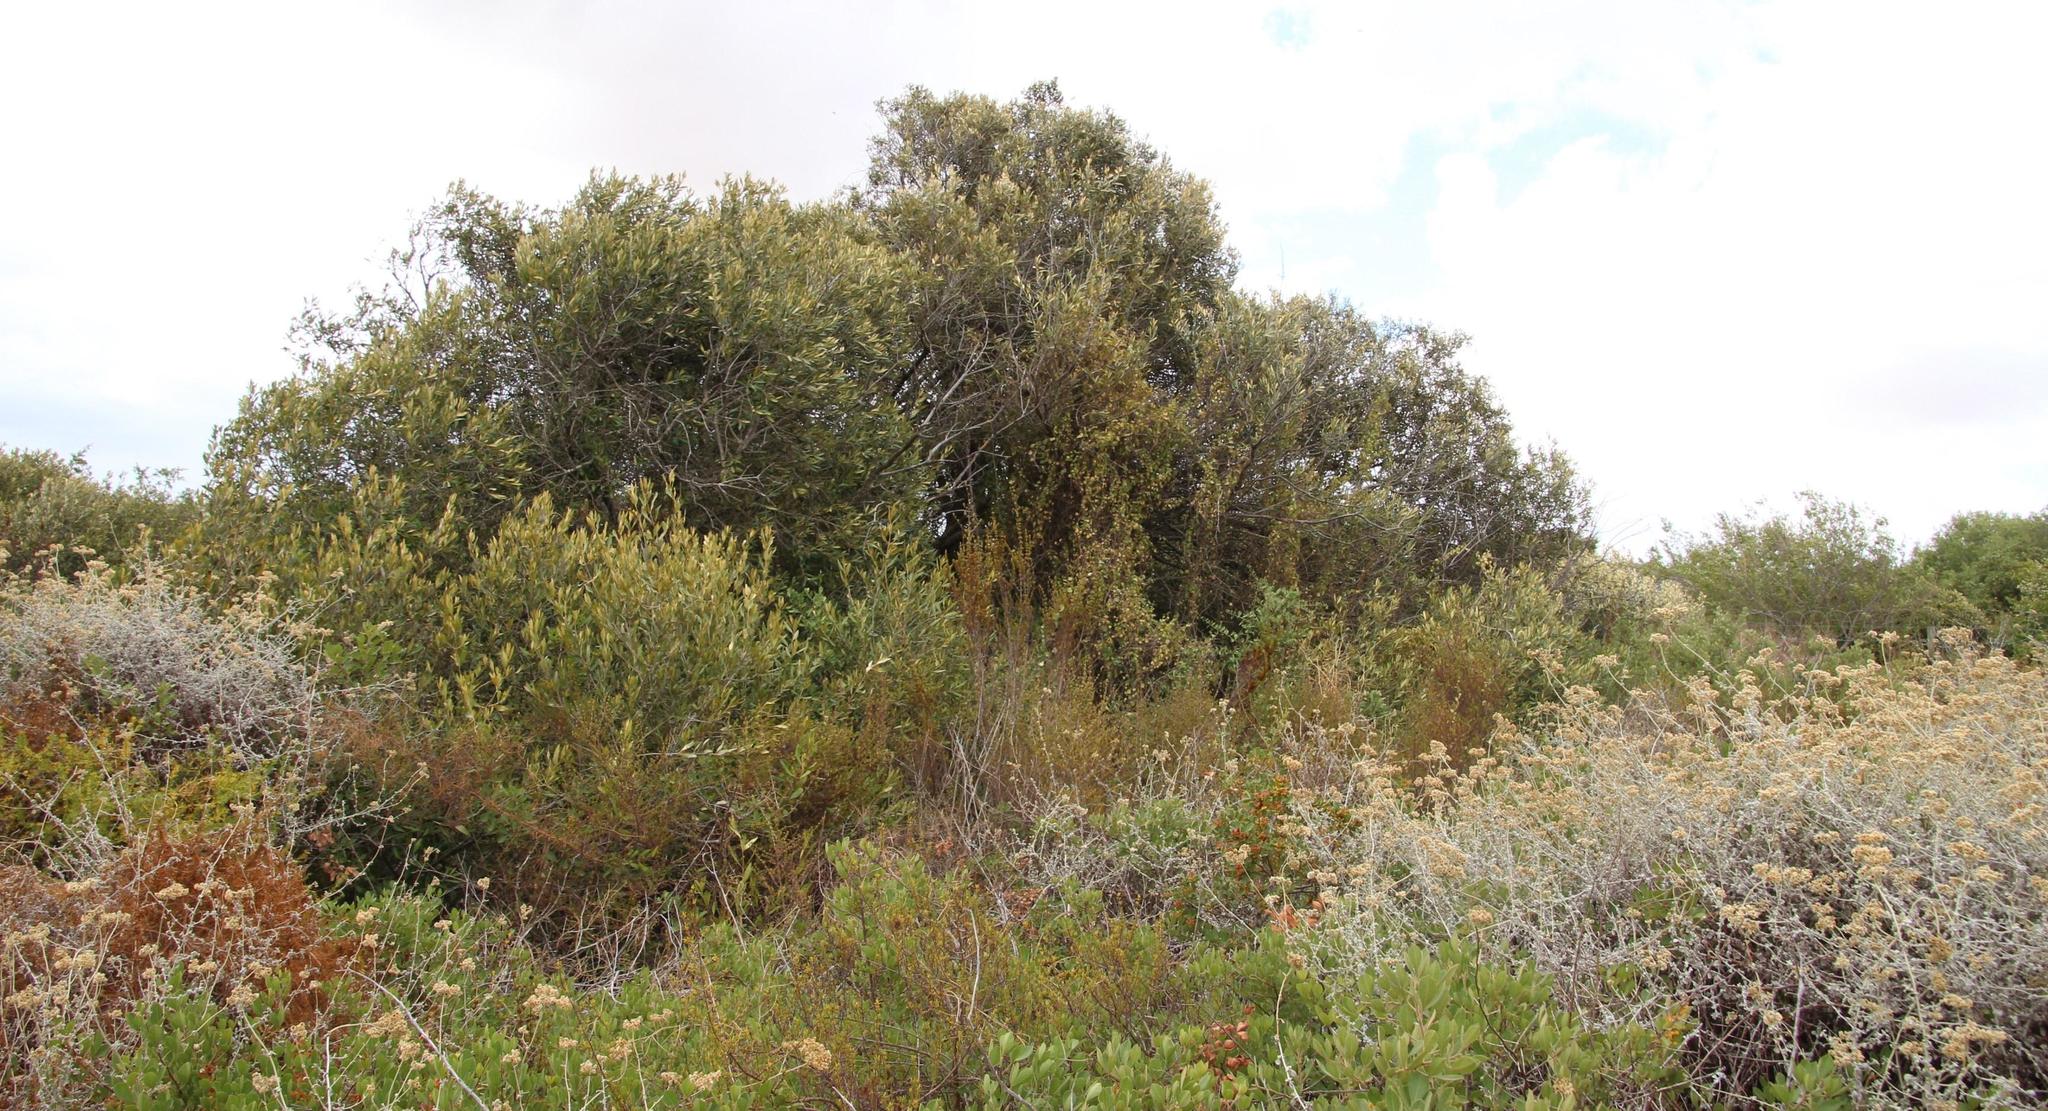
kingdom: Plantae
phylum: Tracheophyta
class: Magnoliopsida
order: Lamiales
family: Oleaceae
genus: Olea
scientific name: Olea europaea
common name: Olive
